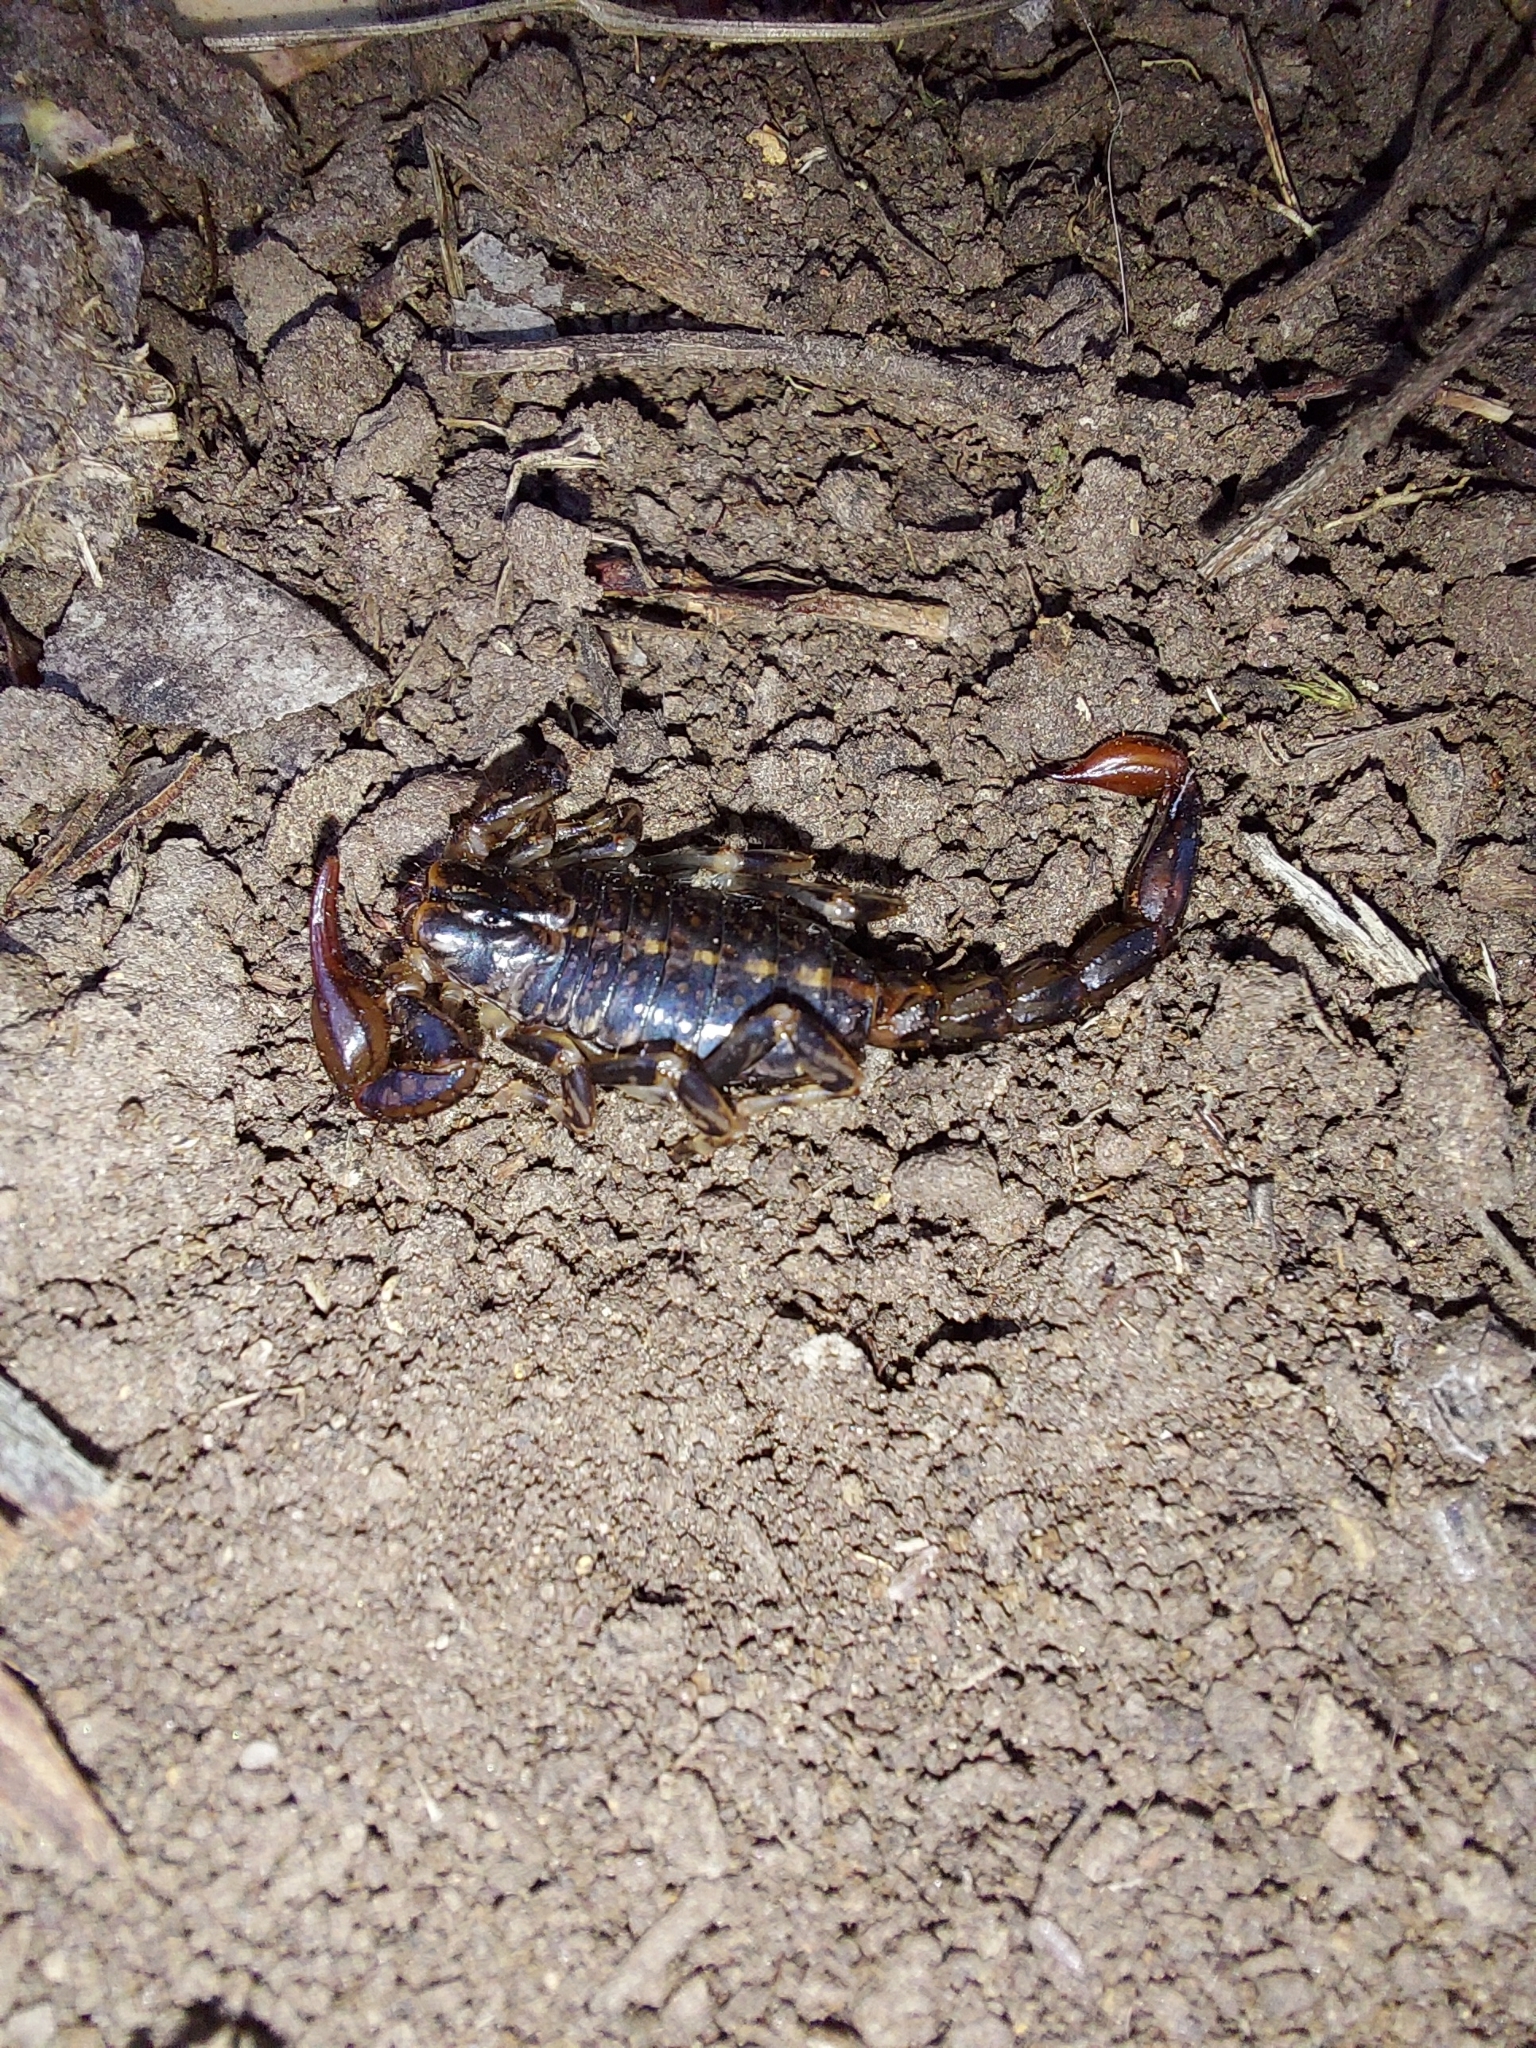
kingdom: Animalia
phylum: Arthropoda
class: Arachnida
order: Scorpiones
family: Bothriuridae
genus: Cercophonius
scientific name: Cercophonius squama
